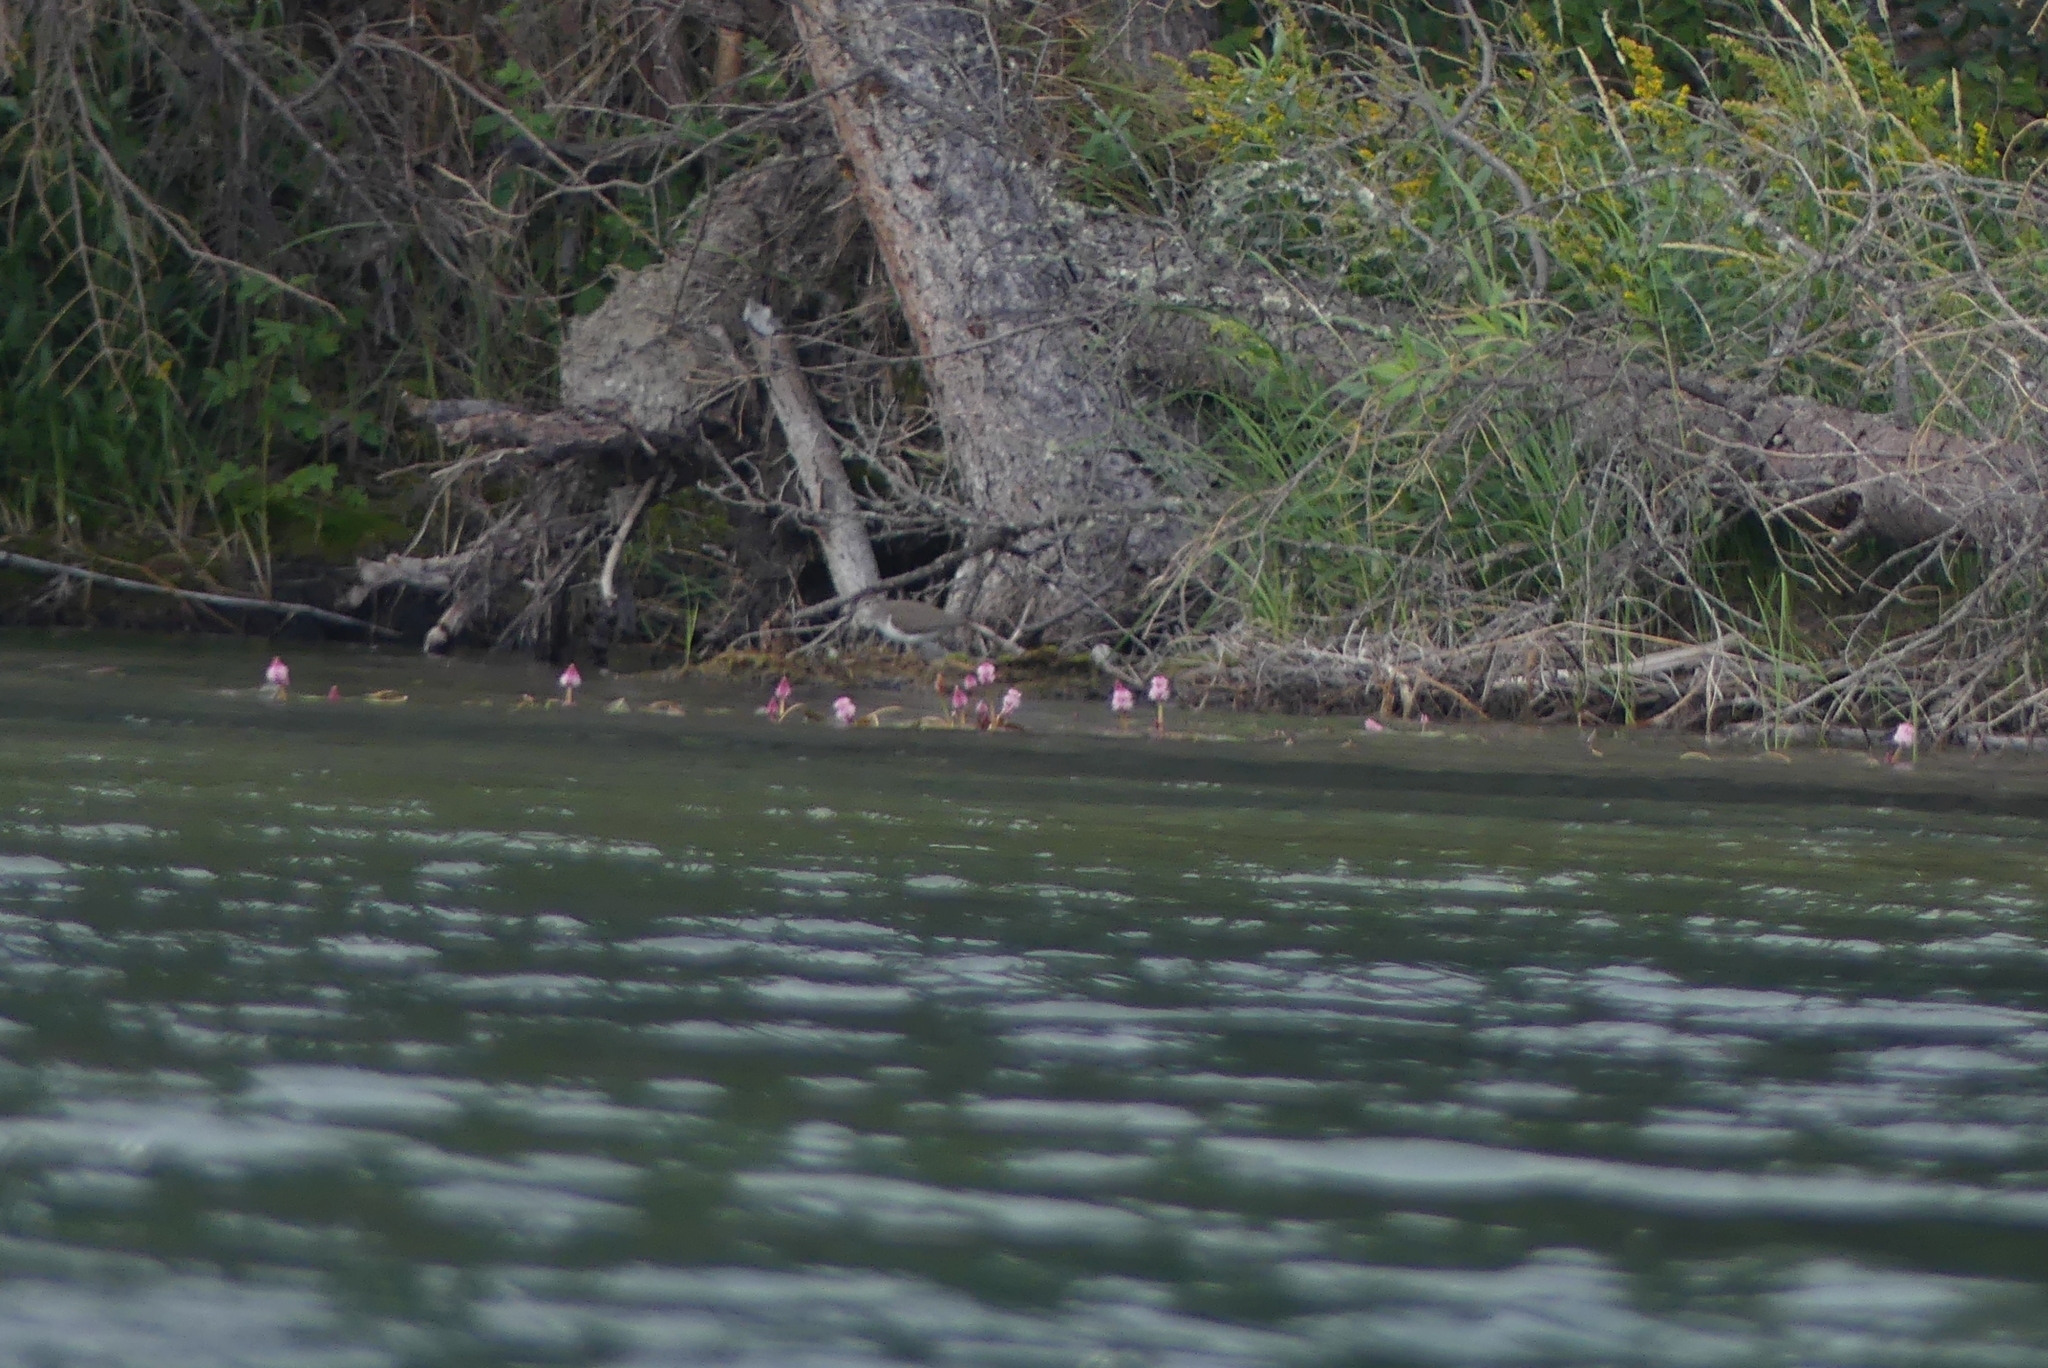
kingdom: Animalia
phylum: Chordata
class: Aves
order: Charadriiformes
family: Scolopacidae
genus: Actitis
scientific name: Actitis macularius
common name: Spotted sandpiper
